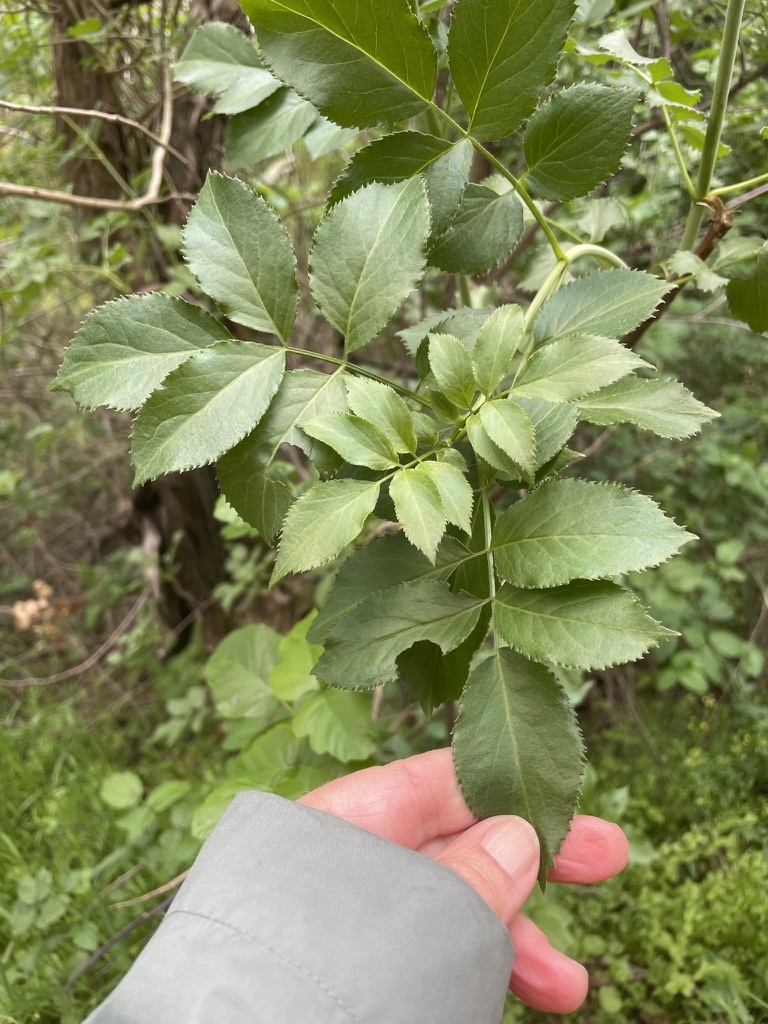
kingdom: Plantae
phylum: Tracheophyta
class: Magnoliopsida
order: Dipsacales
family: Viburnaceae
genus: Sambucus
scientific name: Sambucus cerulea
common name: Blue elder
